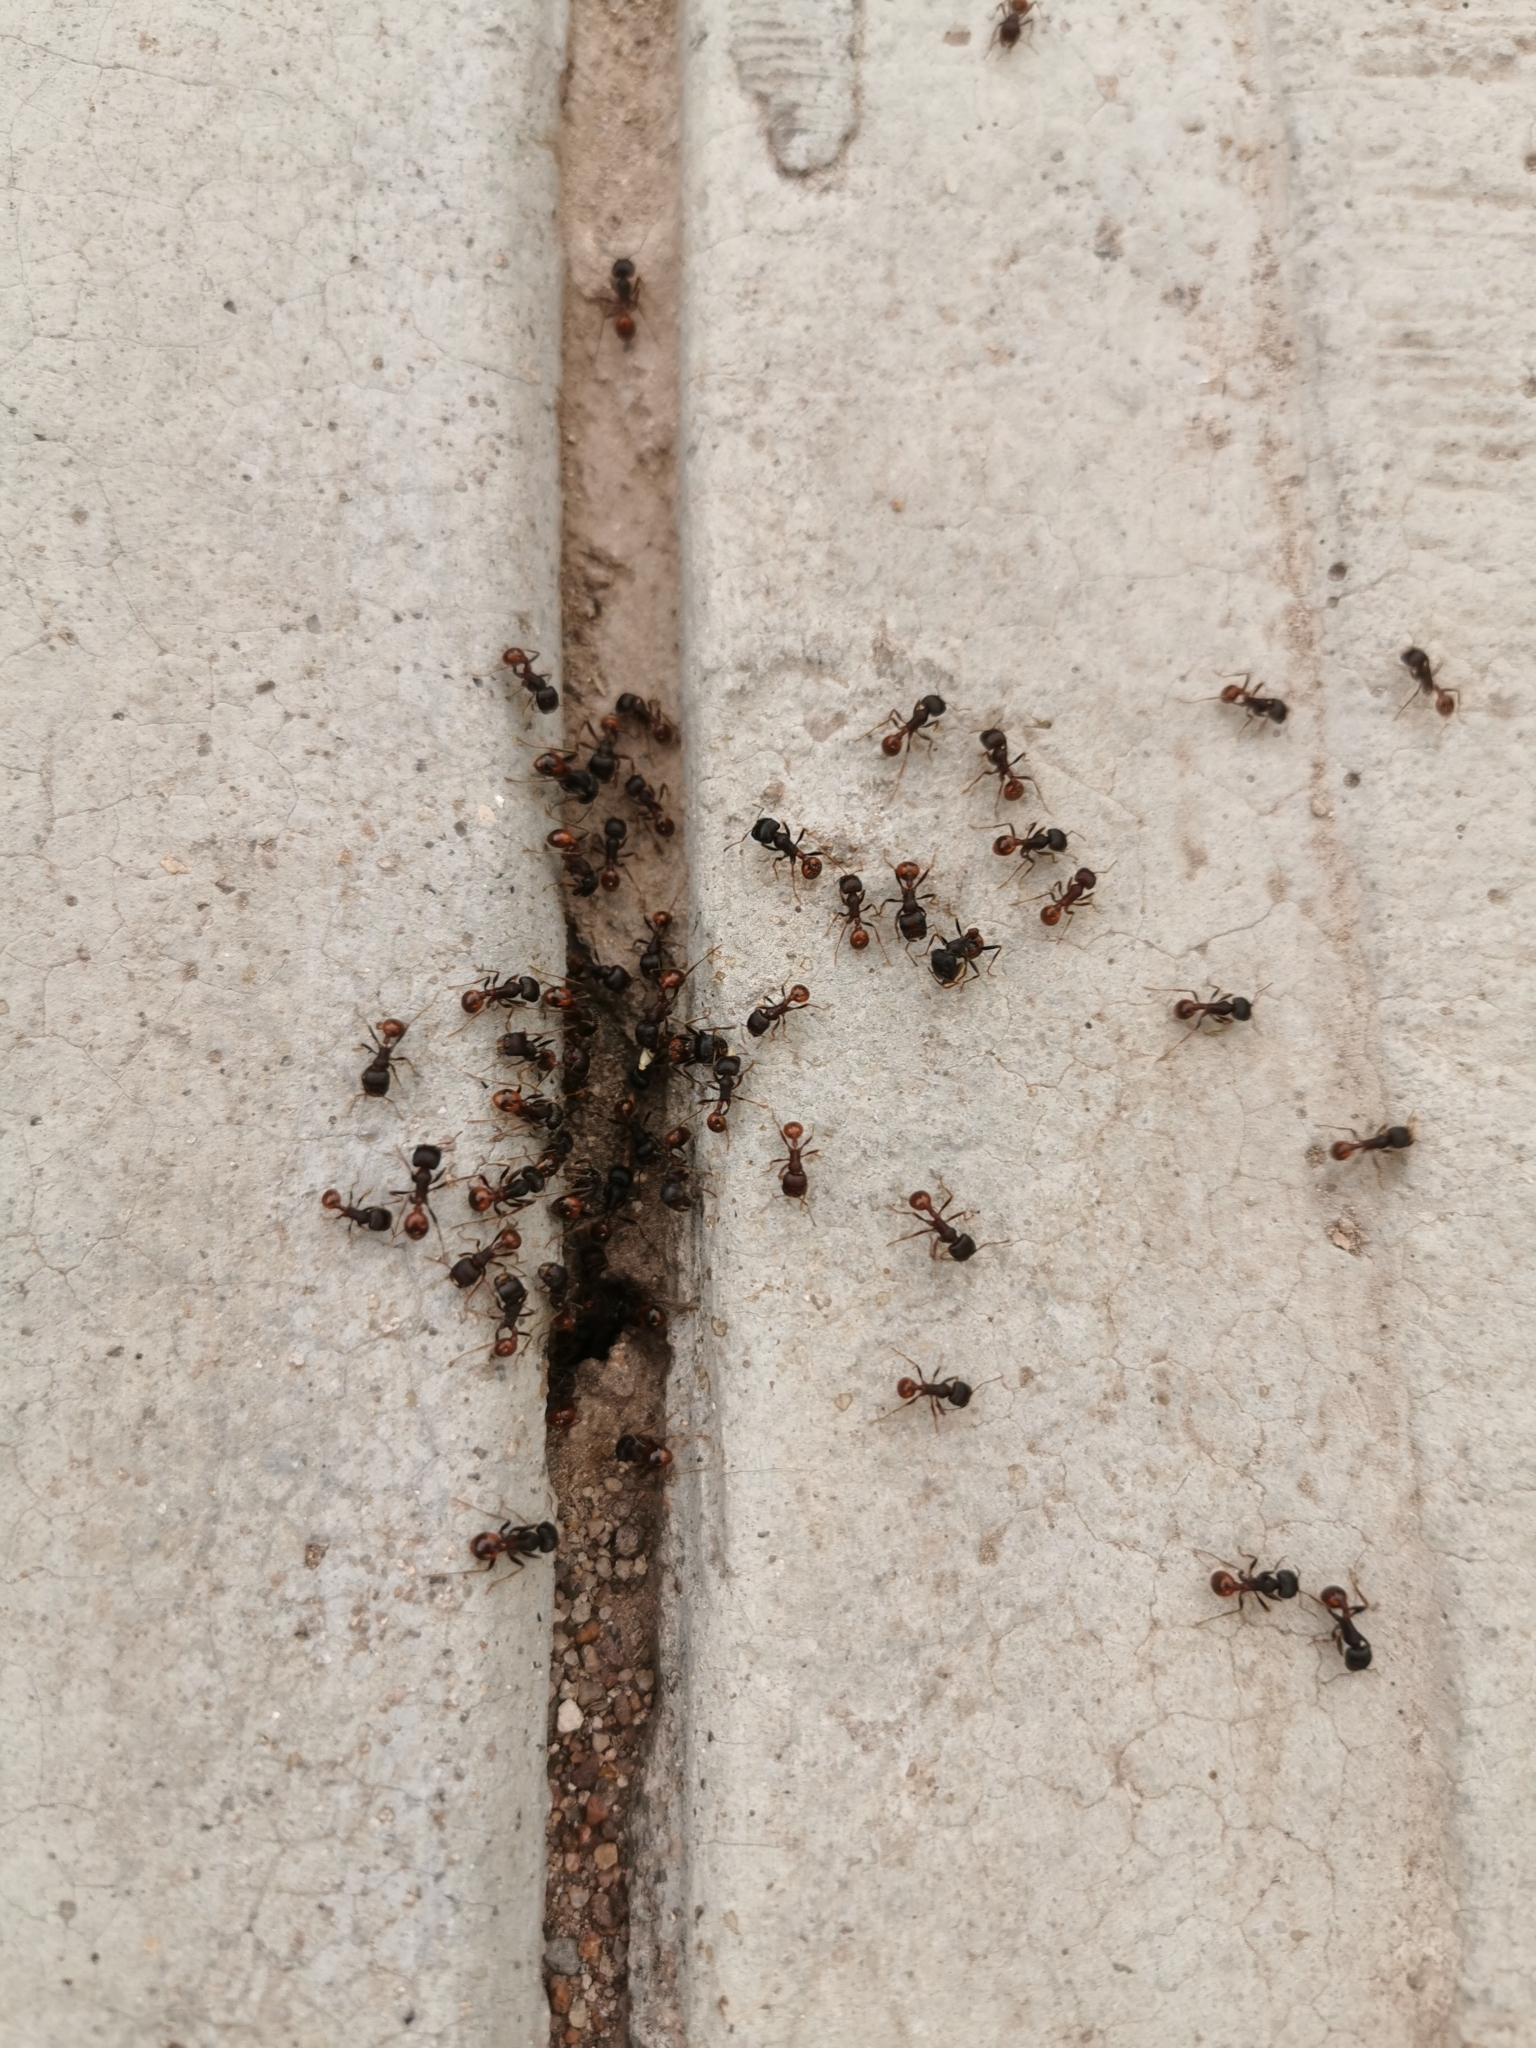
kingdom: Animalia
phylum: Arthropoda
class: Insecta
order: Hymenoptera
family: Formicidae
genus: Pogonomyrmex
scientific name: Pogonomyrmex rugosus
